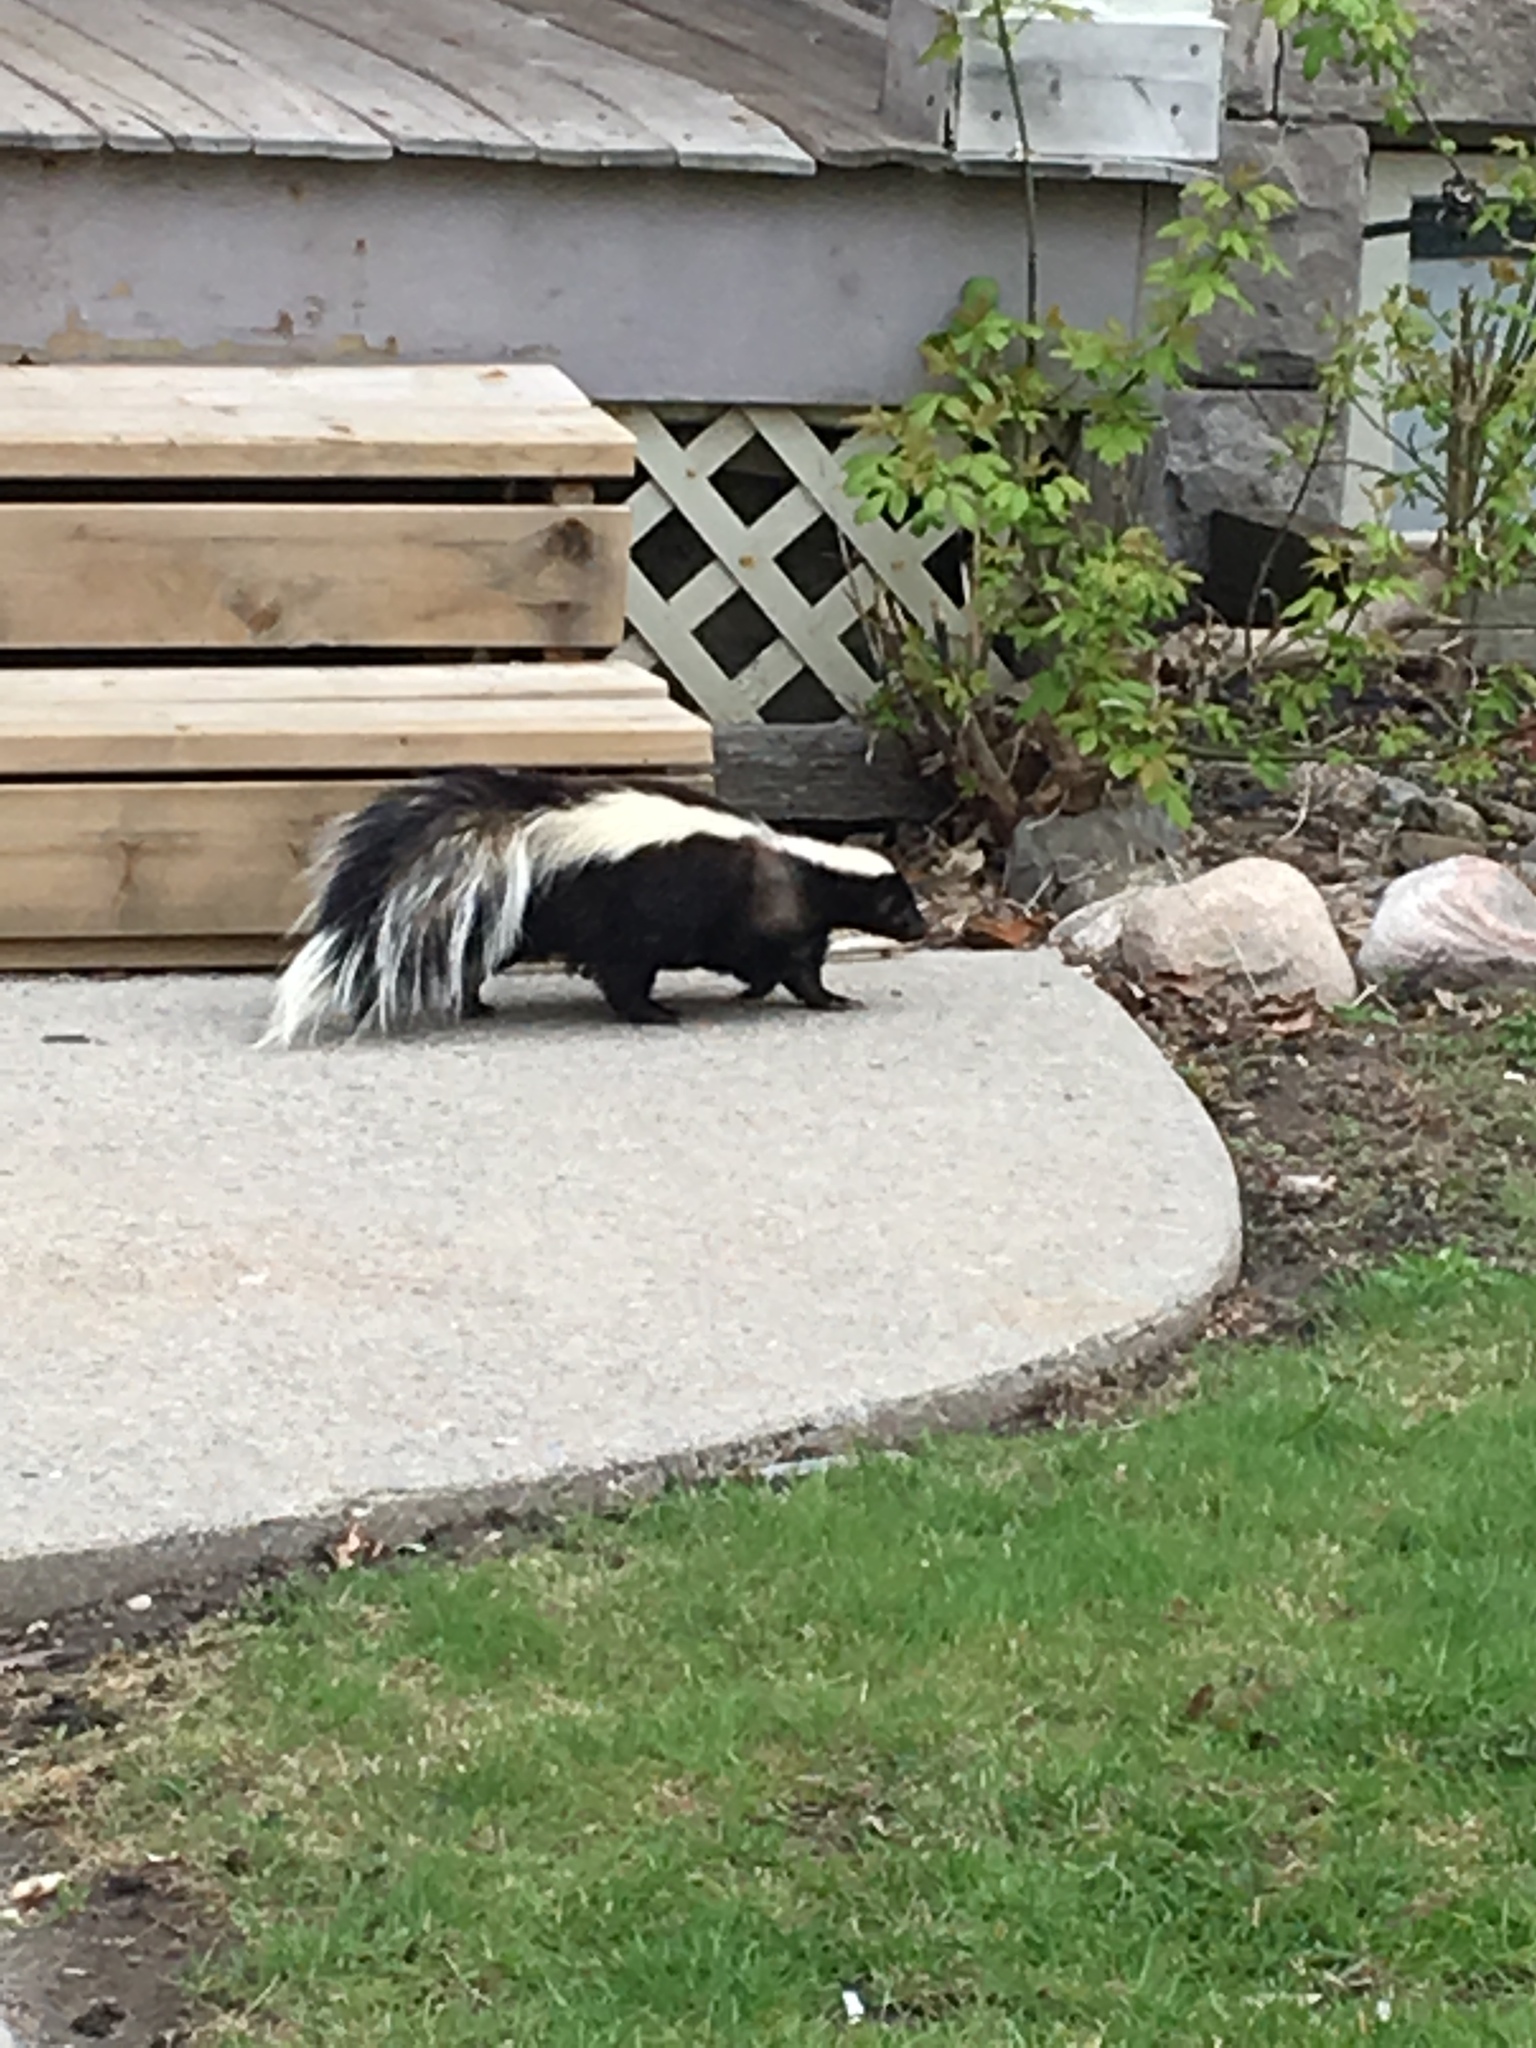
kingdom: Animalia
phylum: Chordata
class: Mammalia
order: Carnivora
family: Mephitidae
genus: Mephitis
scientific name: Mephitis mephitis
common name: Striped skunk
